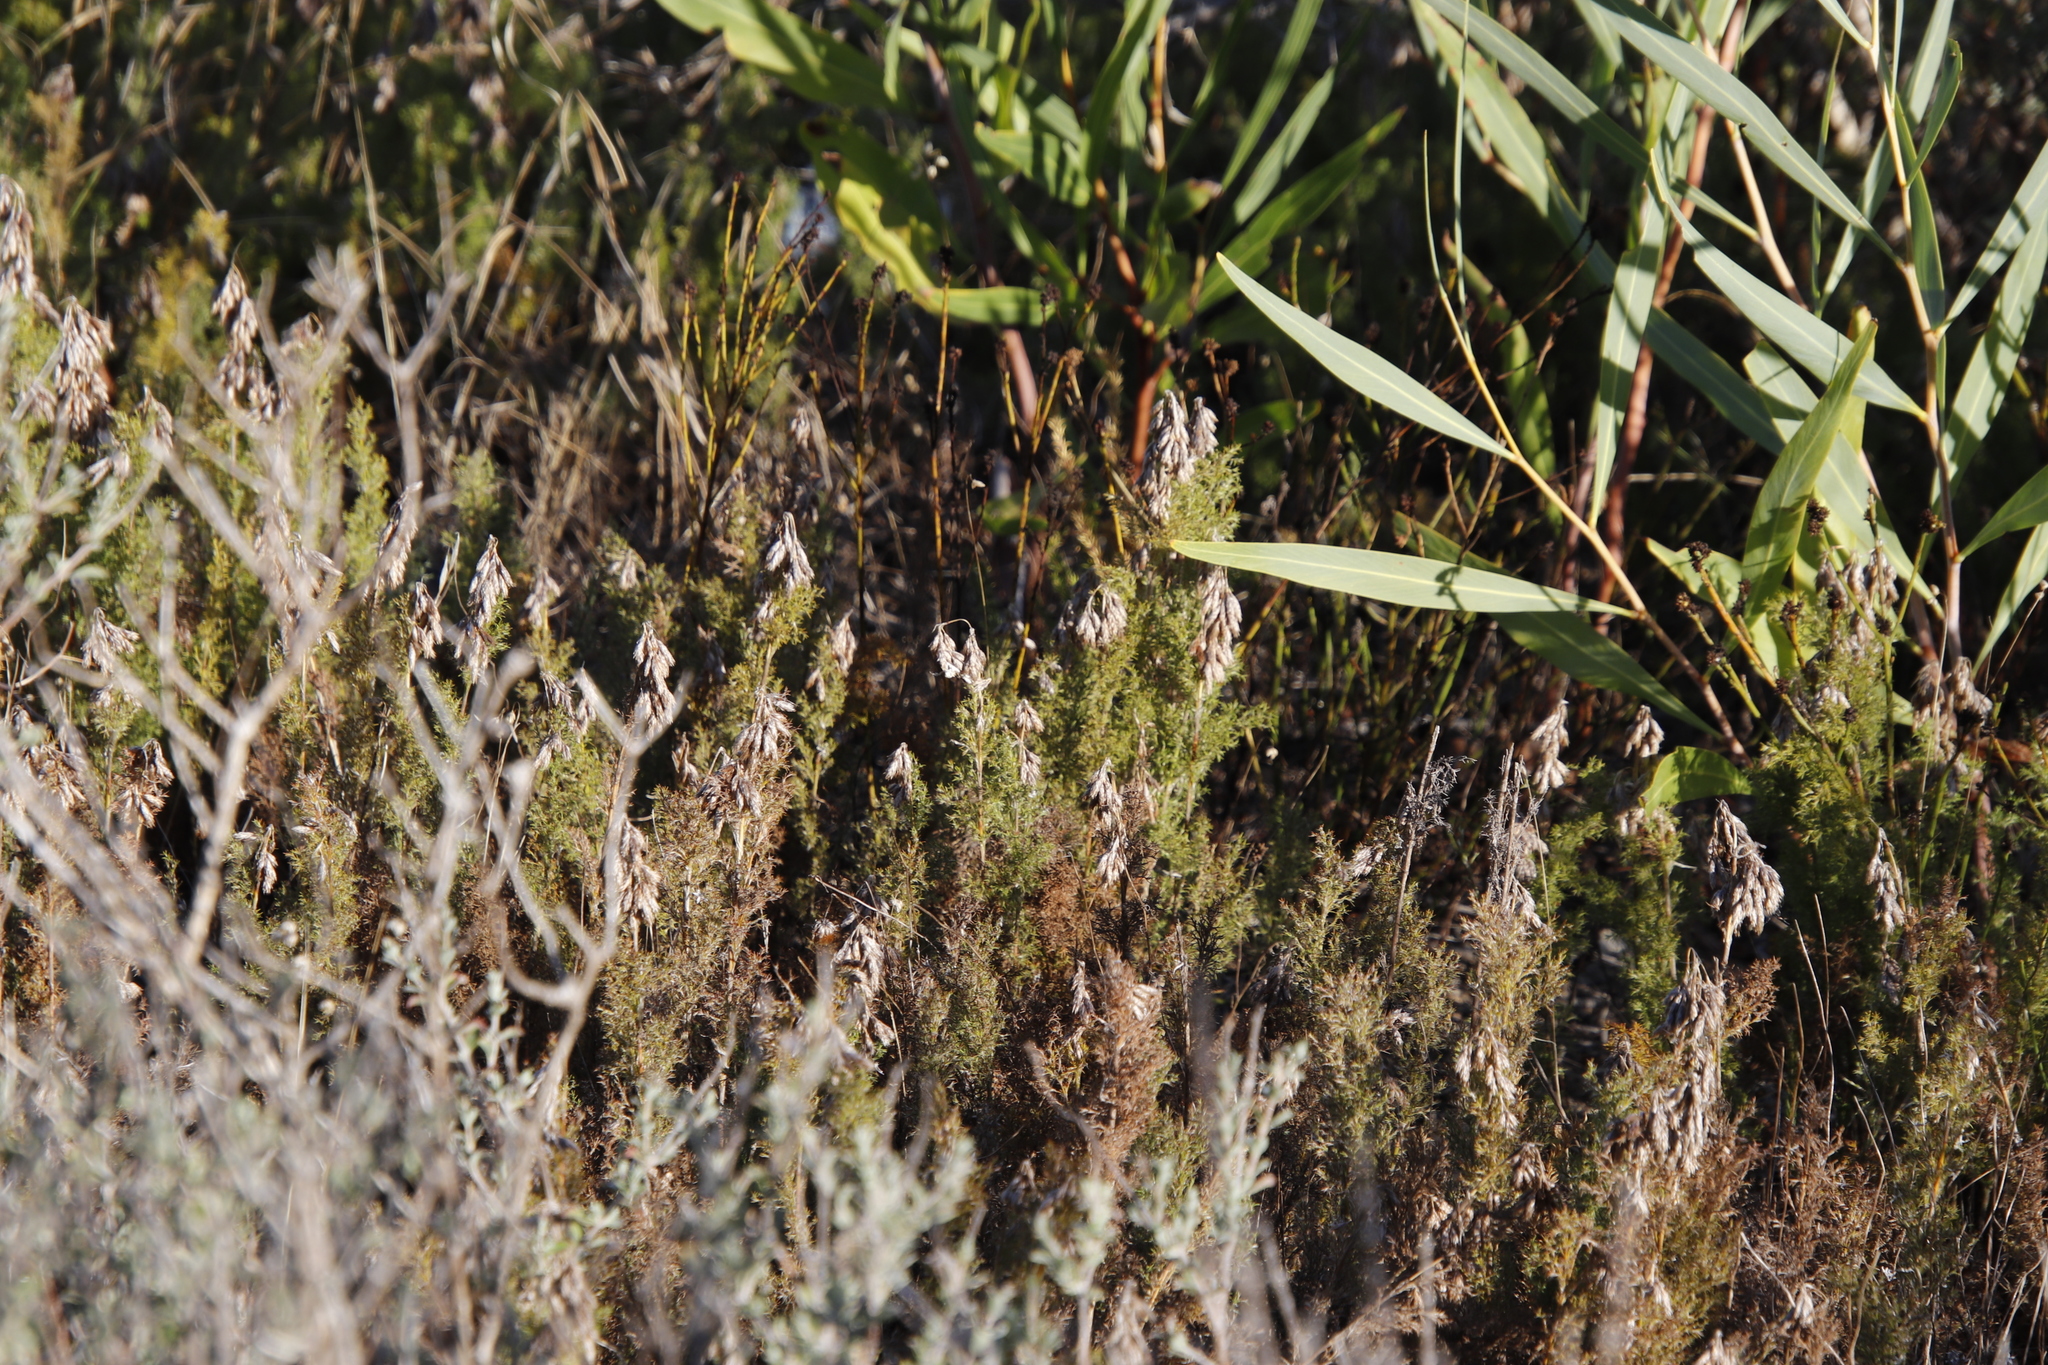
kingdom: Plantae
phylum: Tracheophyta
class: Liliopsida
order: Poales
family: Restionaceae
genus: Thamnochortus
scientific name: Thamnochortus fruticosus
